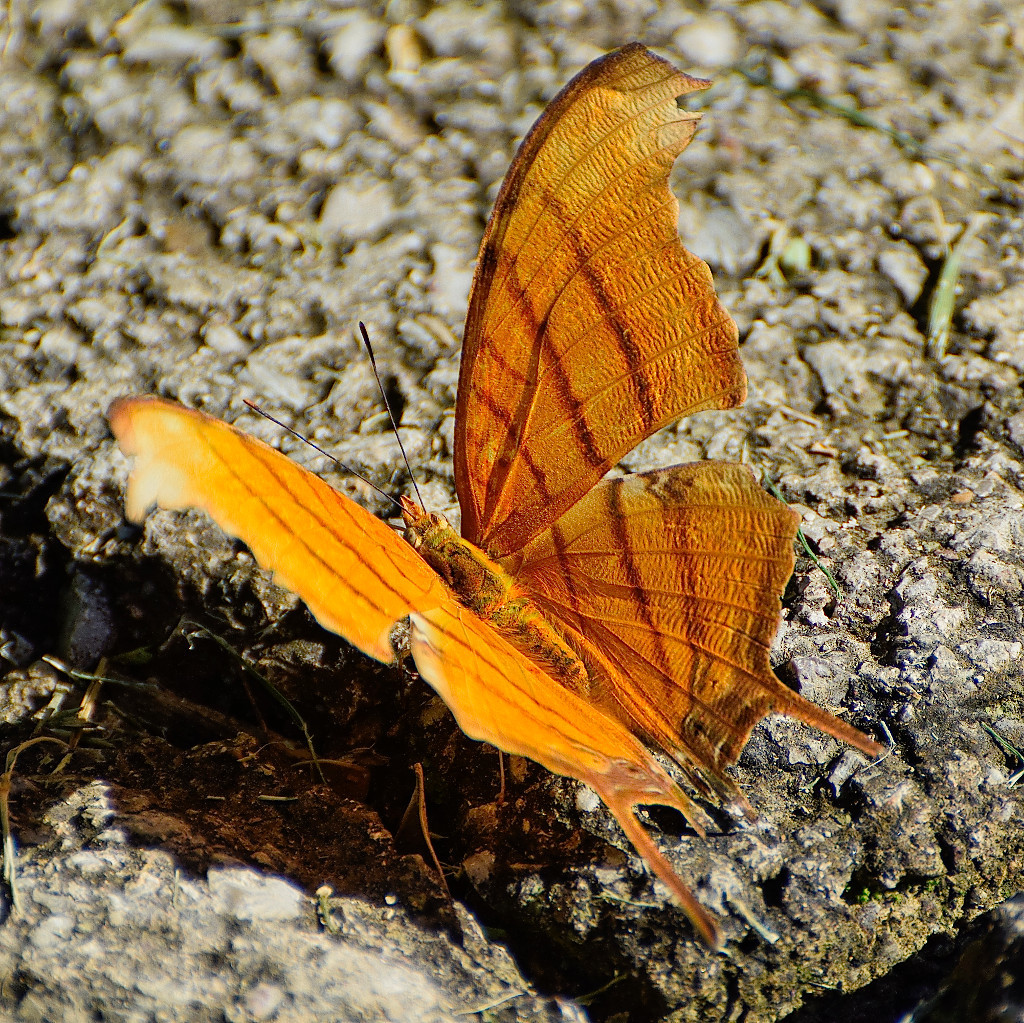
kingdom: Animalia
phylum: Arthropoda
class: Insecta
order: Lepidoptera
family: Nymphalidae
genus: Marpesia
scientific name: Marpesia petreus
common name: Red dagger wing
